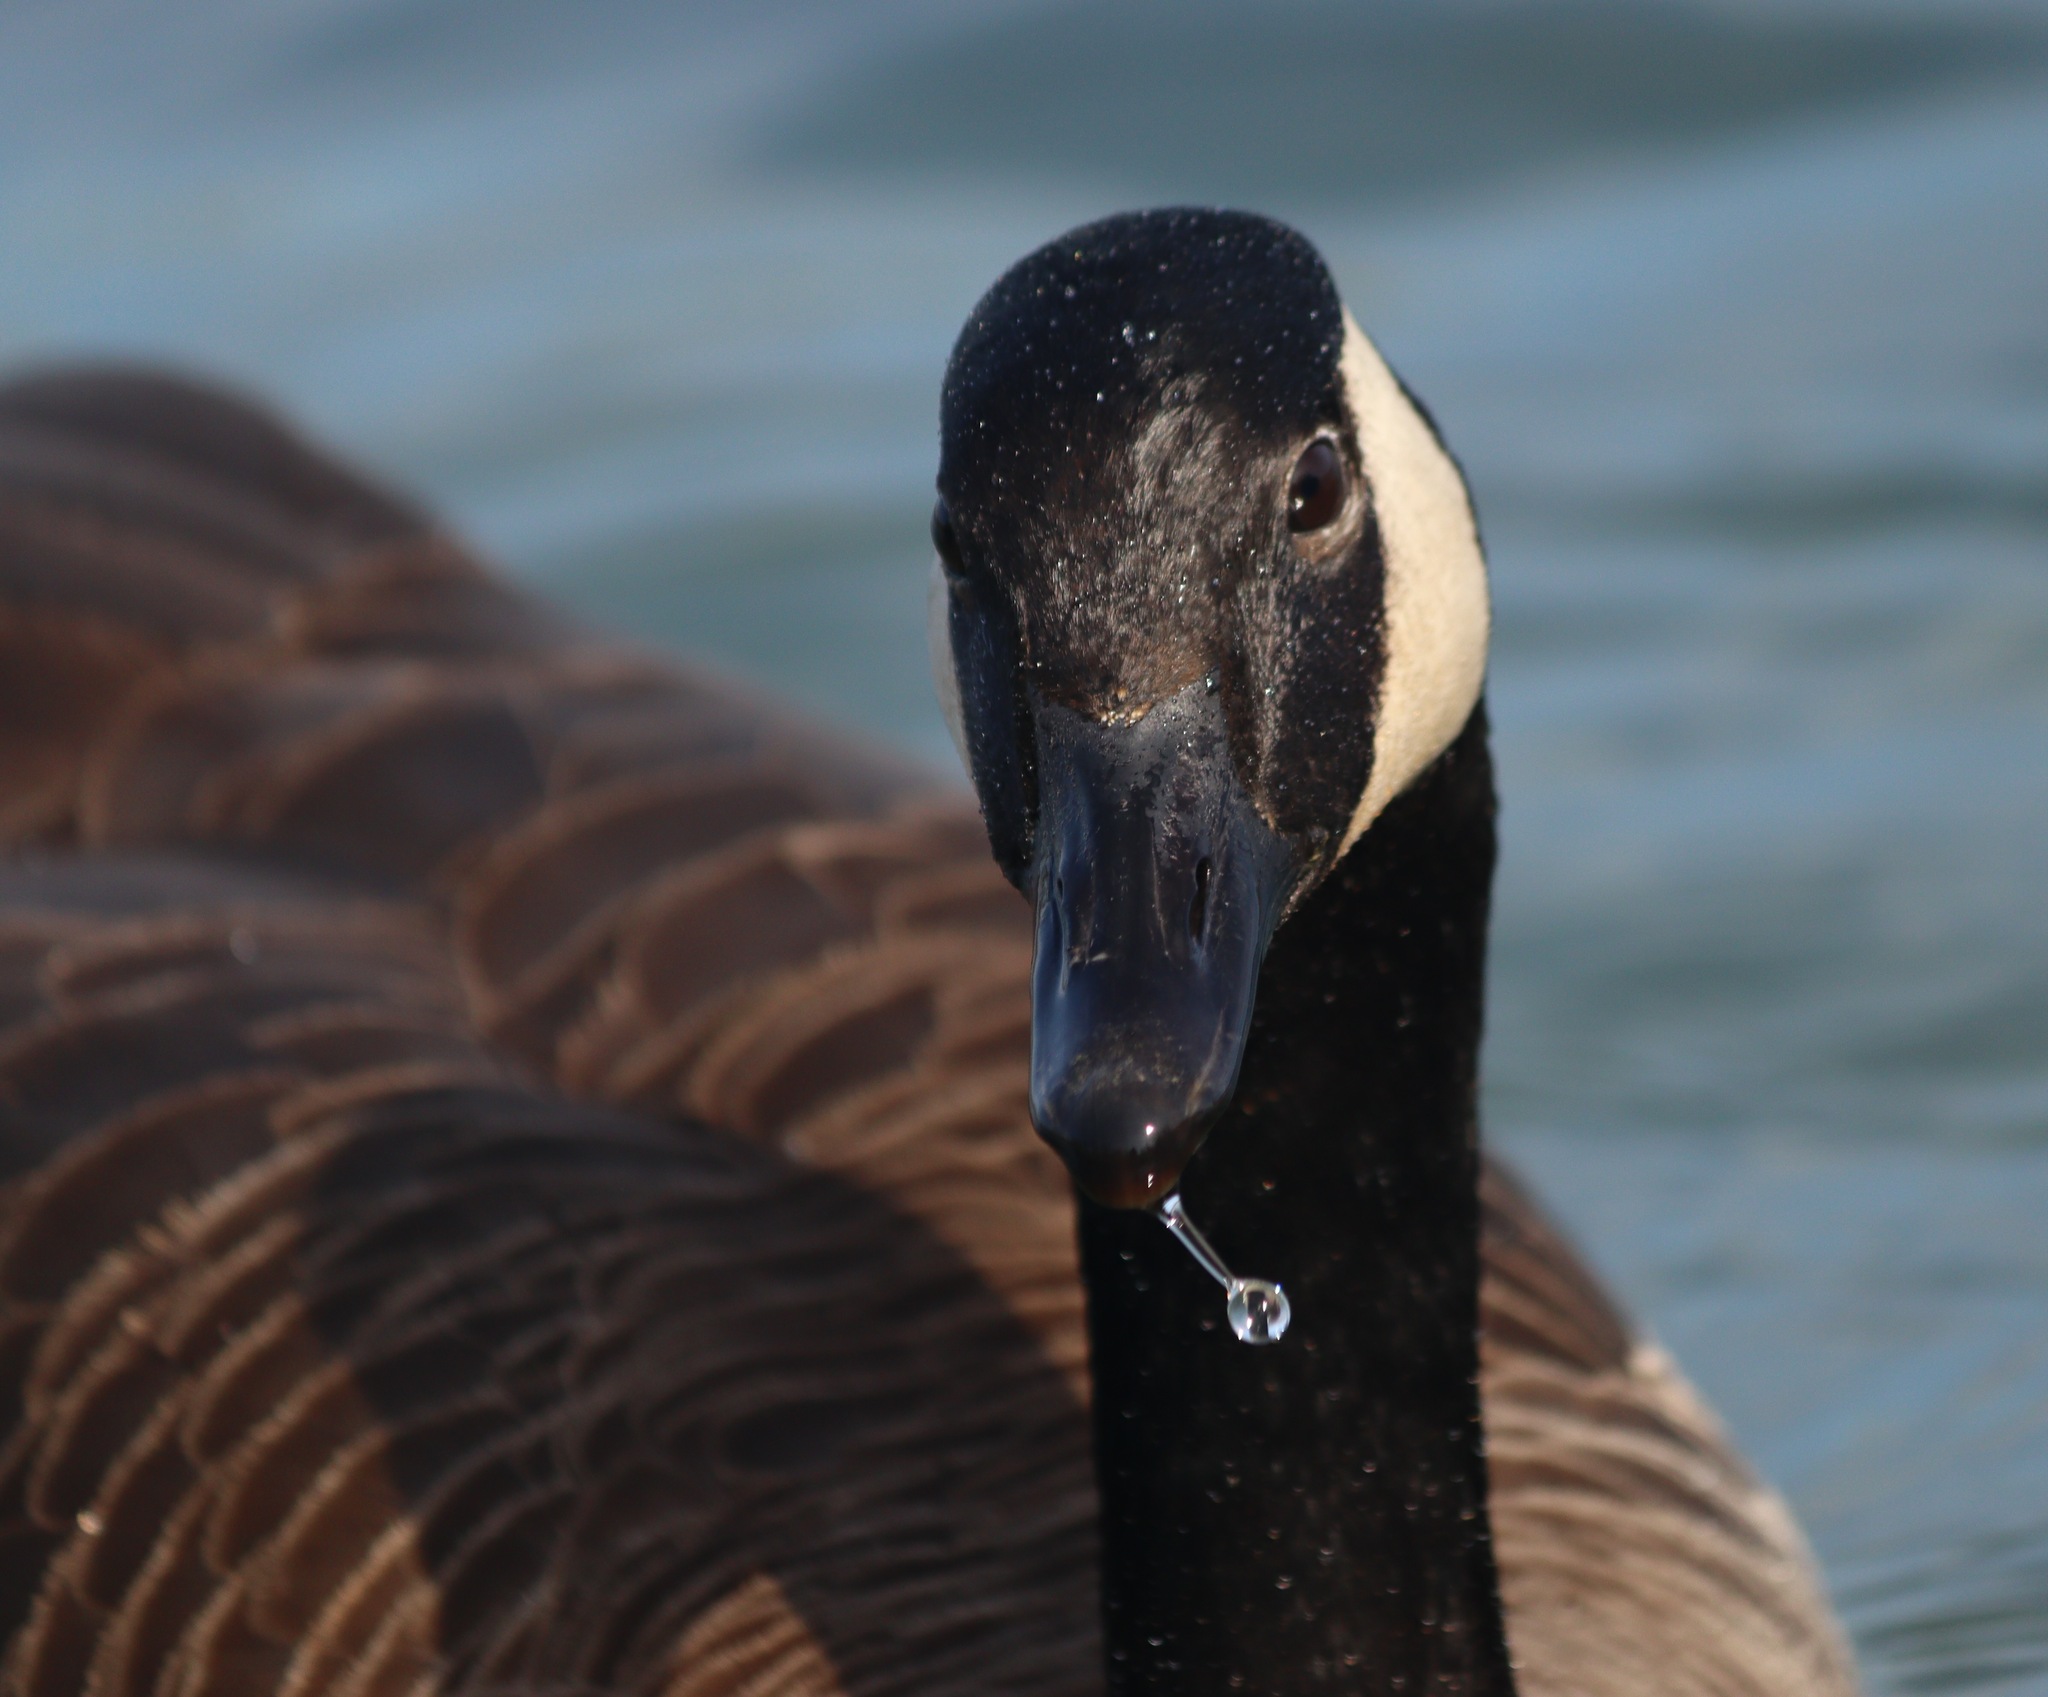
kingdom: Animalia
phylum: Chordata
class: Aves
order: Anseriformes
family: Anatidae
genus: Branta
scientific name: Branta canadensis
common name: Canada goose
